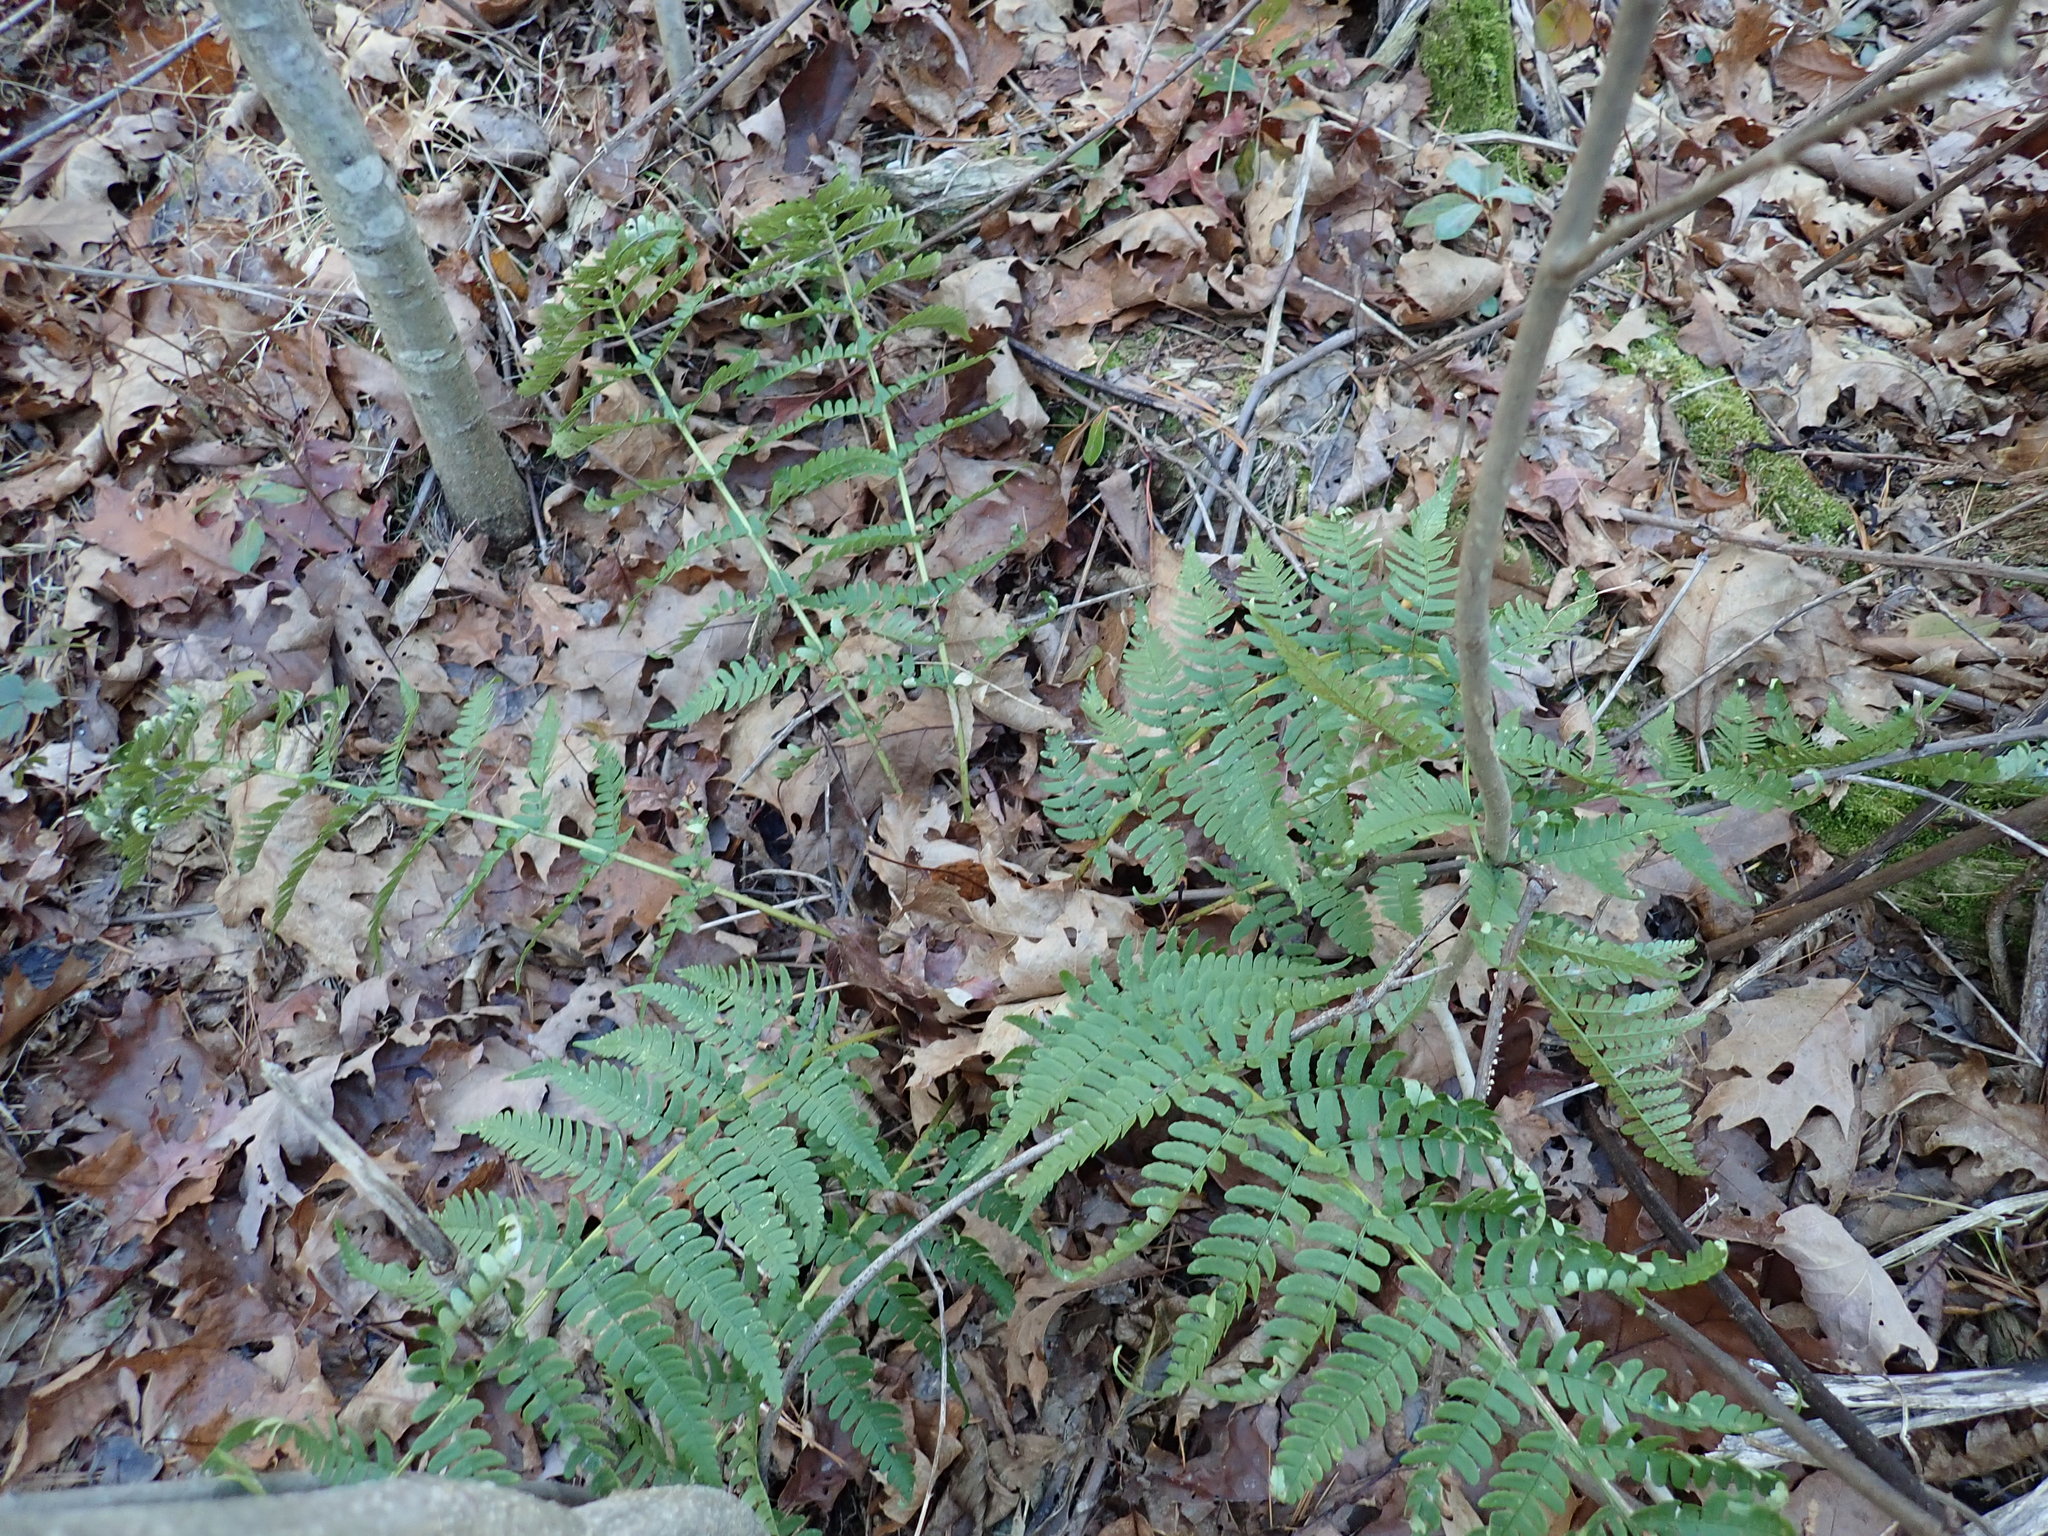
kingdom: Plantae
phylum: Tracheophyta
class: Polypodiopsida
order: Polypodiales
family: Dryopteridaceae
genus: Dryopteris
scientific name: Dryopteris marginalis
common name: Marginal wood fern
